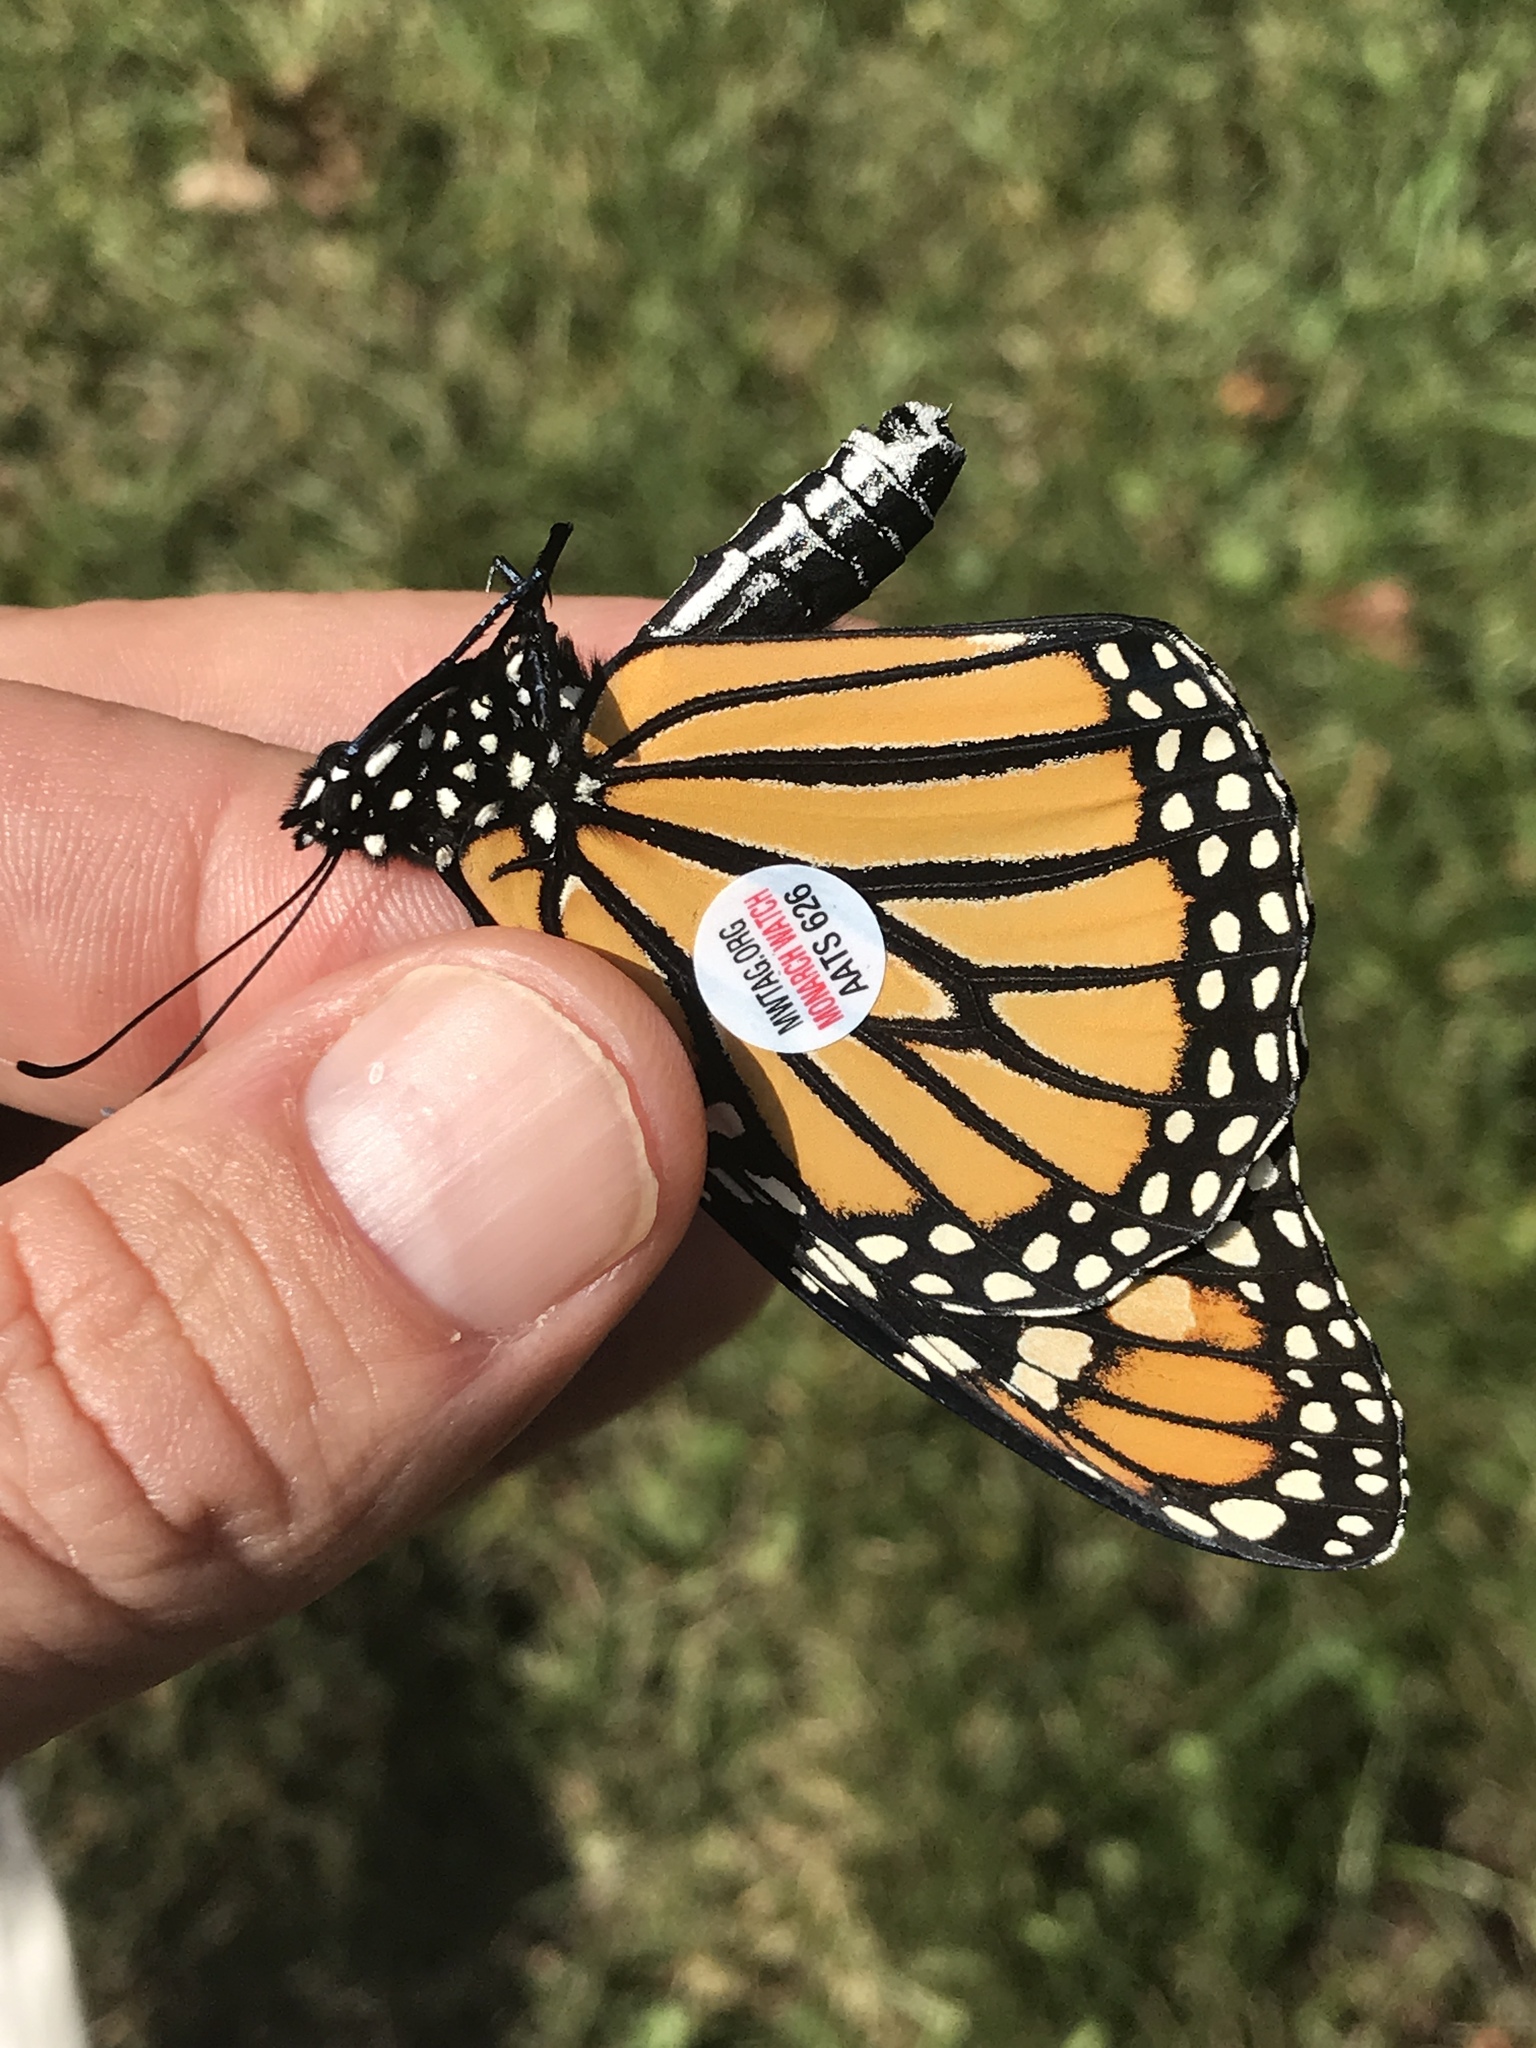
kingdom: Animalia
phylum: Arthropoda
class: Insecta
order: Lepidoptera
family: Nymphalidae
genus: Danaus
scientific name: Danaus plexippus
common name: Monarch
